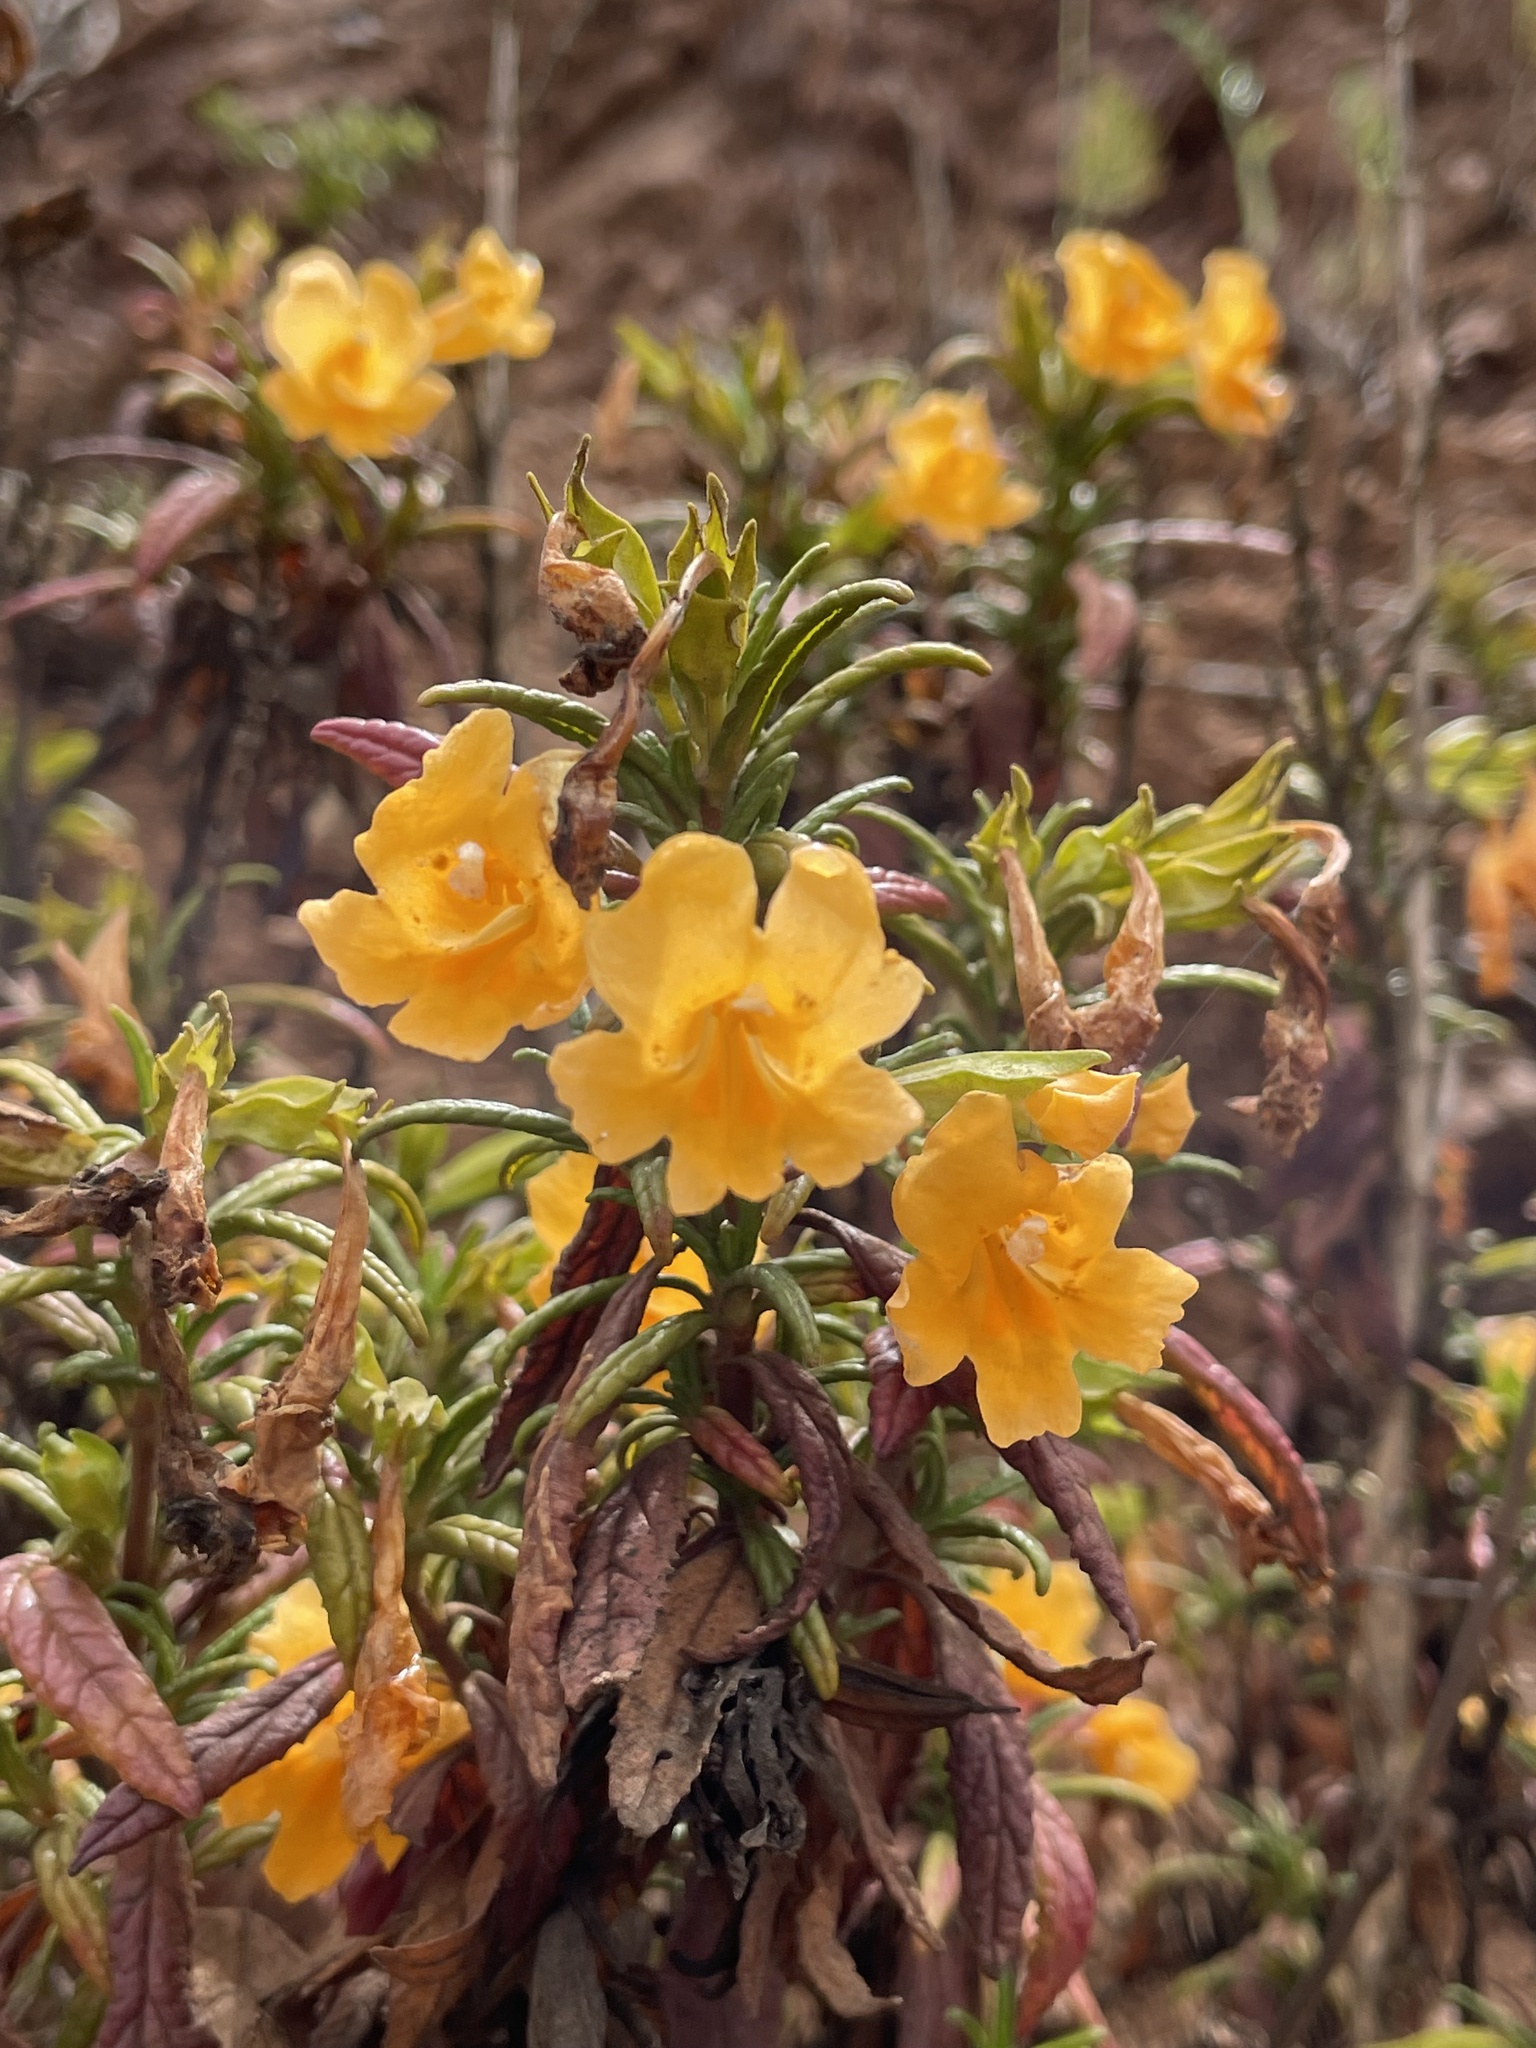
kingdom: Plantae
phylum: Tracheophyta
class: Magnoliopsida
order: Lamiales
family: Phrymaceae
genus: Diplacus
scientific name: Diplacus aurantiacus
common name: Bush monkey-flower
